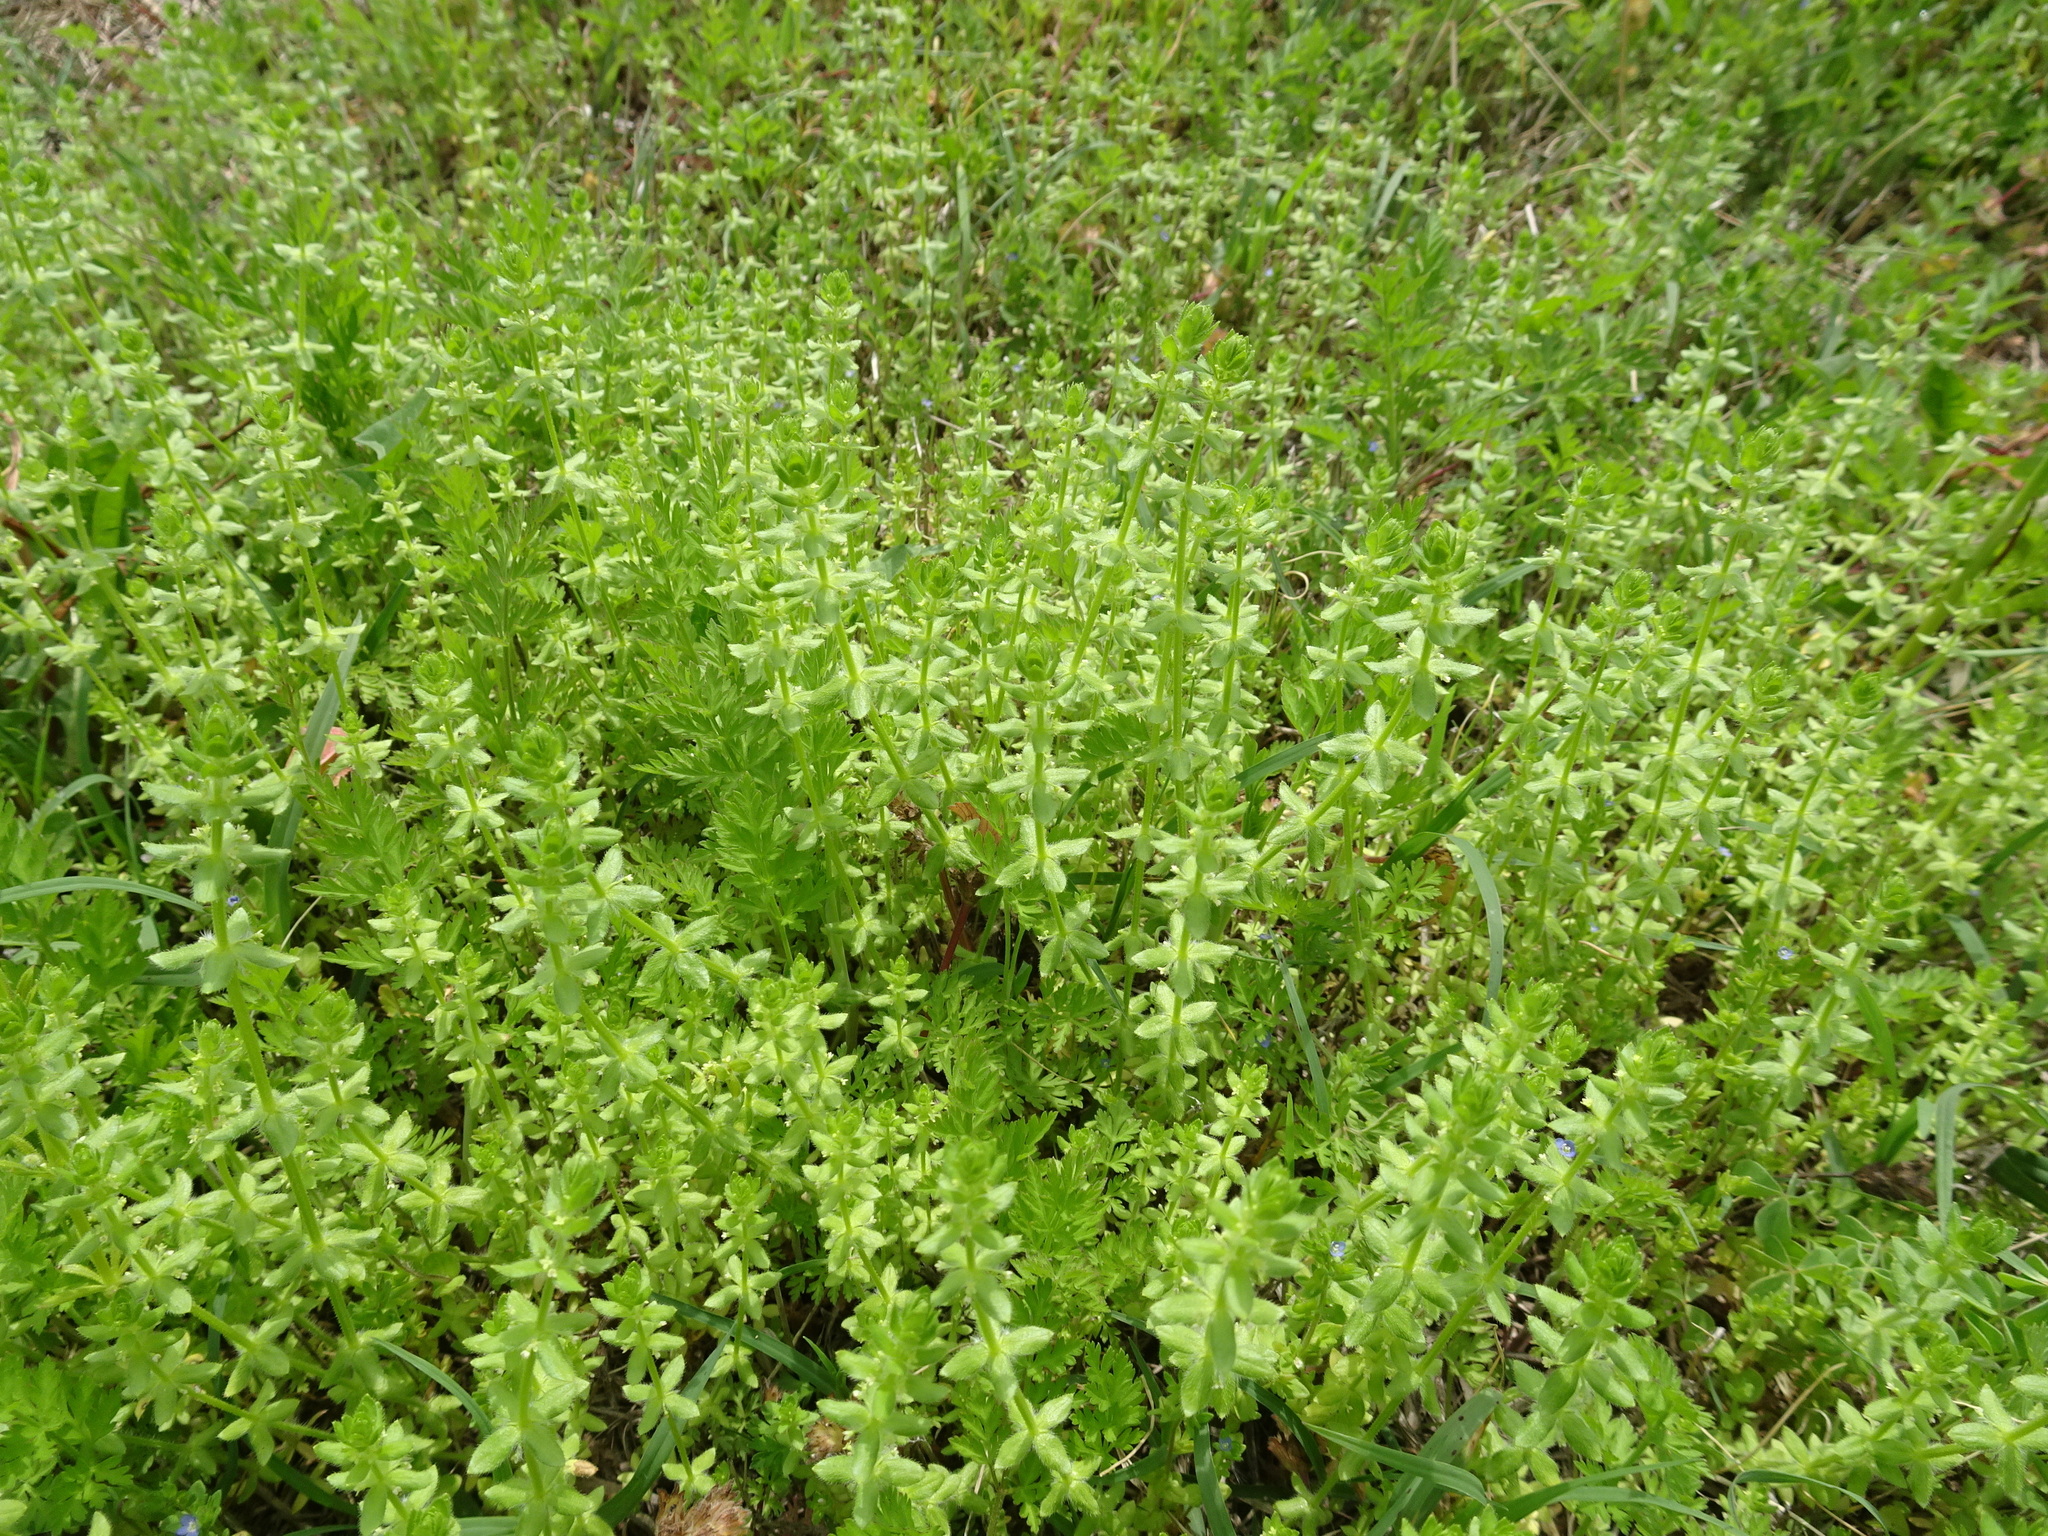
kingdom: Plantae
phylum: Tracheophyta
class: Magnoliopsida
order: Gentianales
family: Rubiaceae
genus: Cruciata
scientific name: Cruciata pedemontana
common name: Piedmont bedstraw
